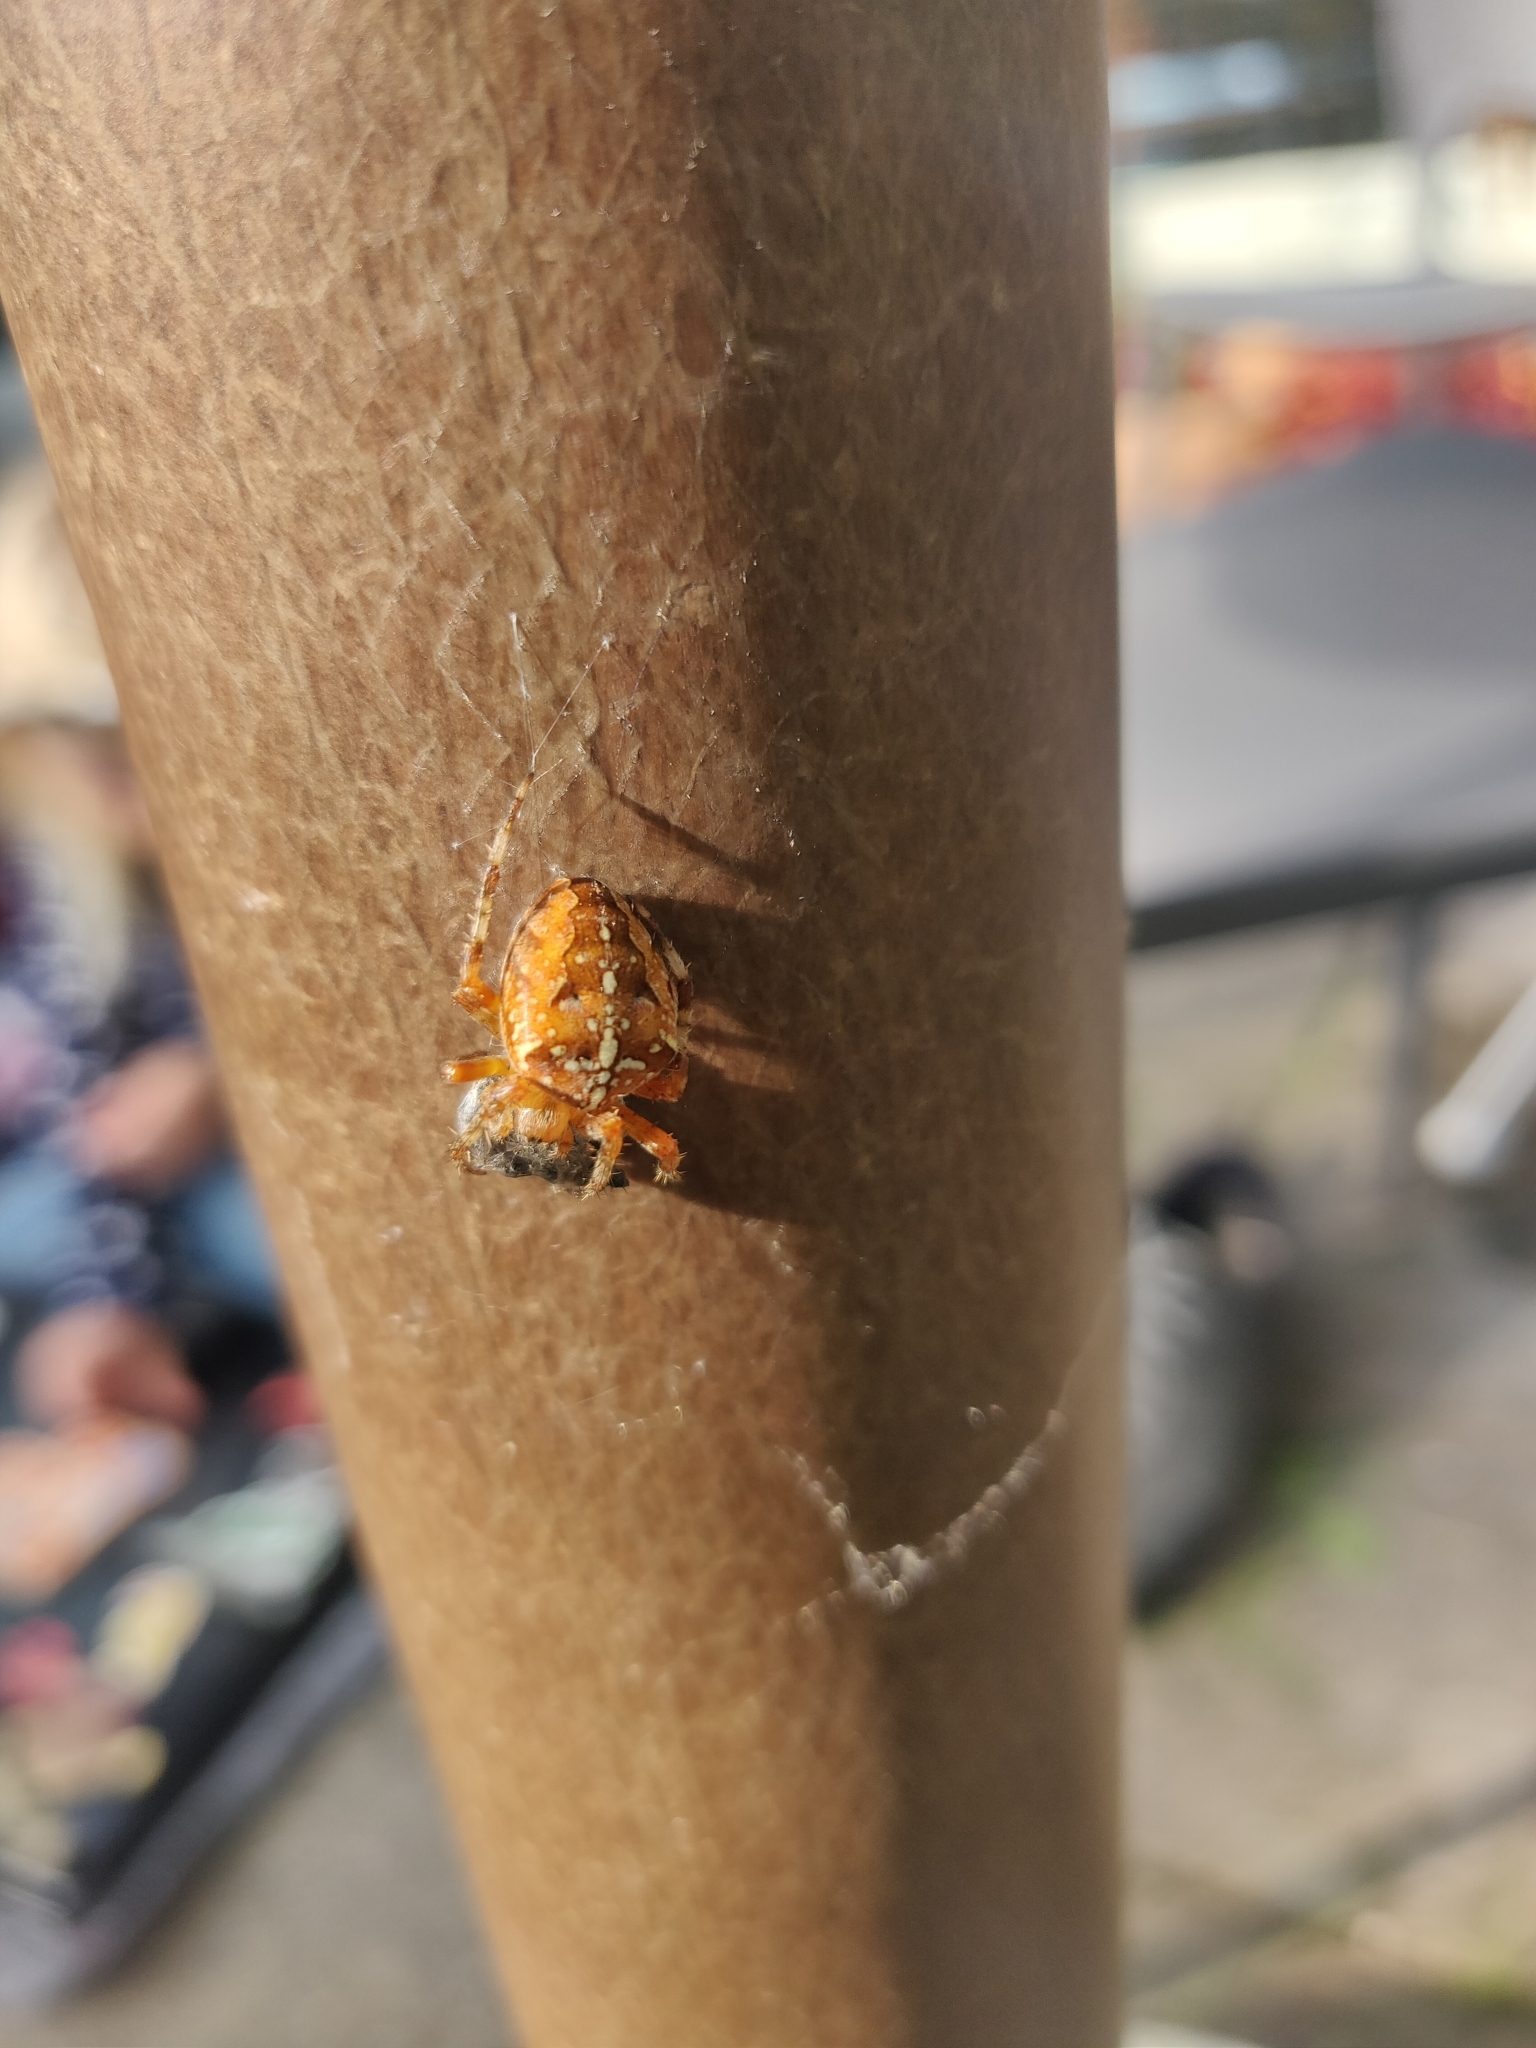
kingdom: Animalia
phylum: Arthropoda
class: Arachnida
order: Araneae
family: Araneidae
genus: Araneus
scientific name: Araneus diadematus
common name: Cross orbweaver
